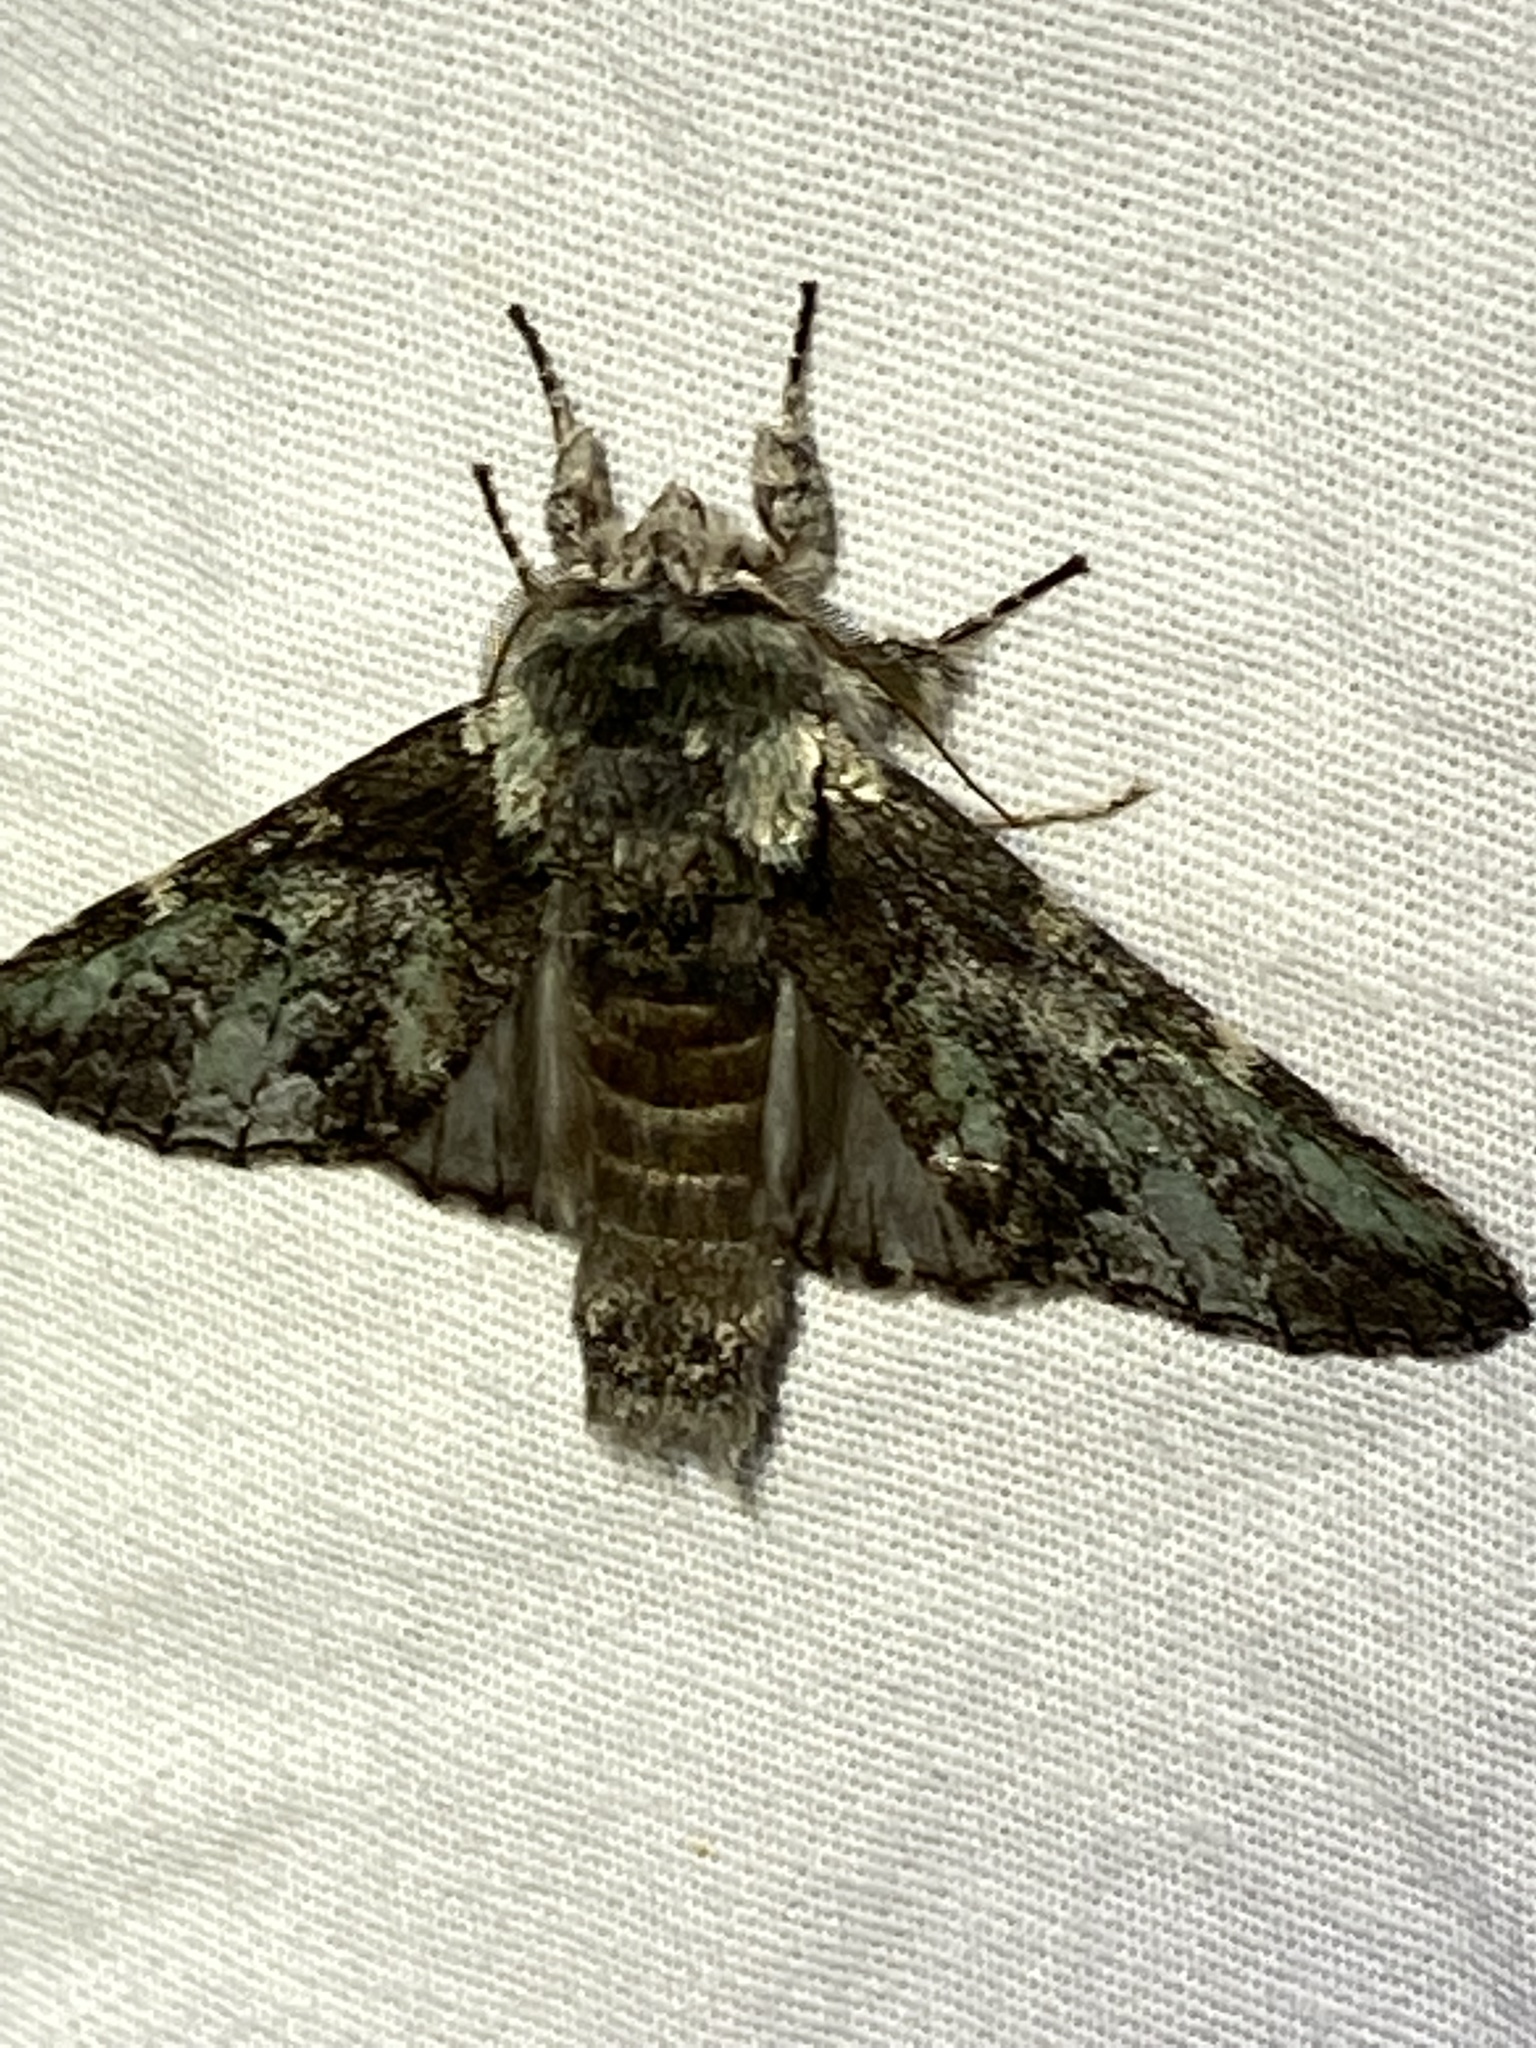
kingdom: Animalia
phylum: Arthropoda
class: Insecta
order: Lepidoptera
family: Notodontidae
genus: Macrurocampa
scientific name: Macrurocampa marthesia
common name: Mottled prominent
